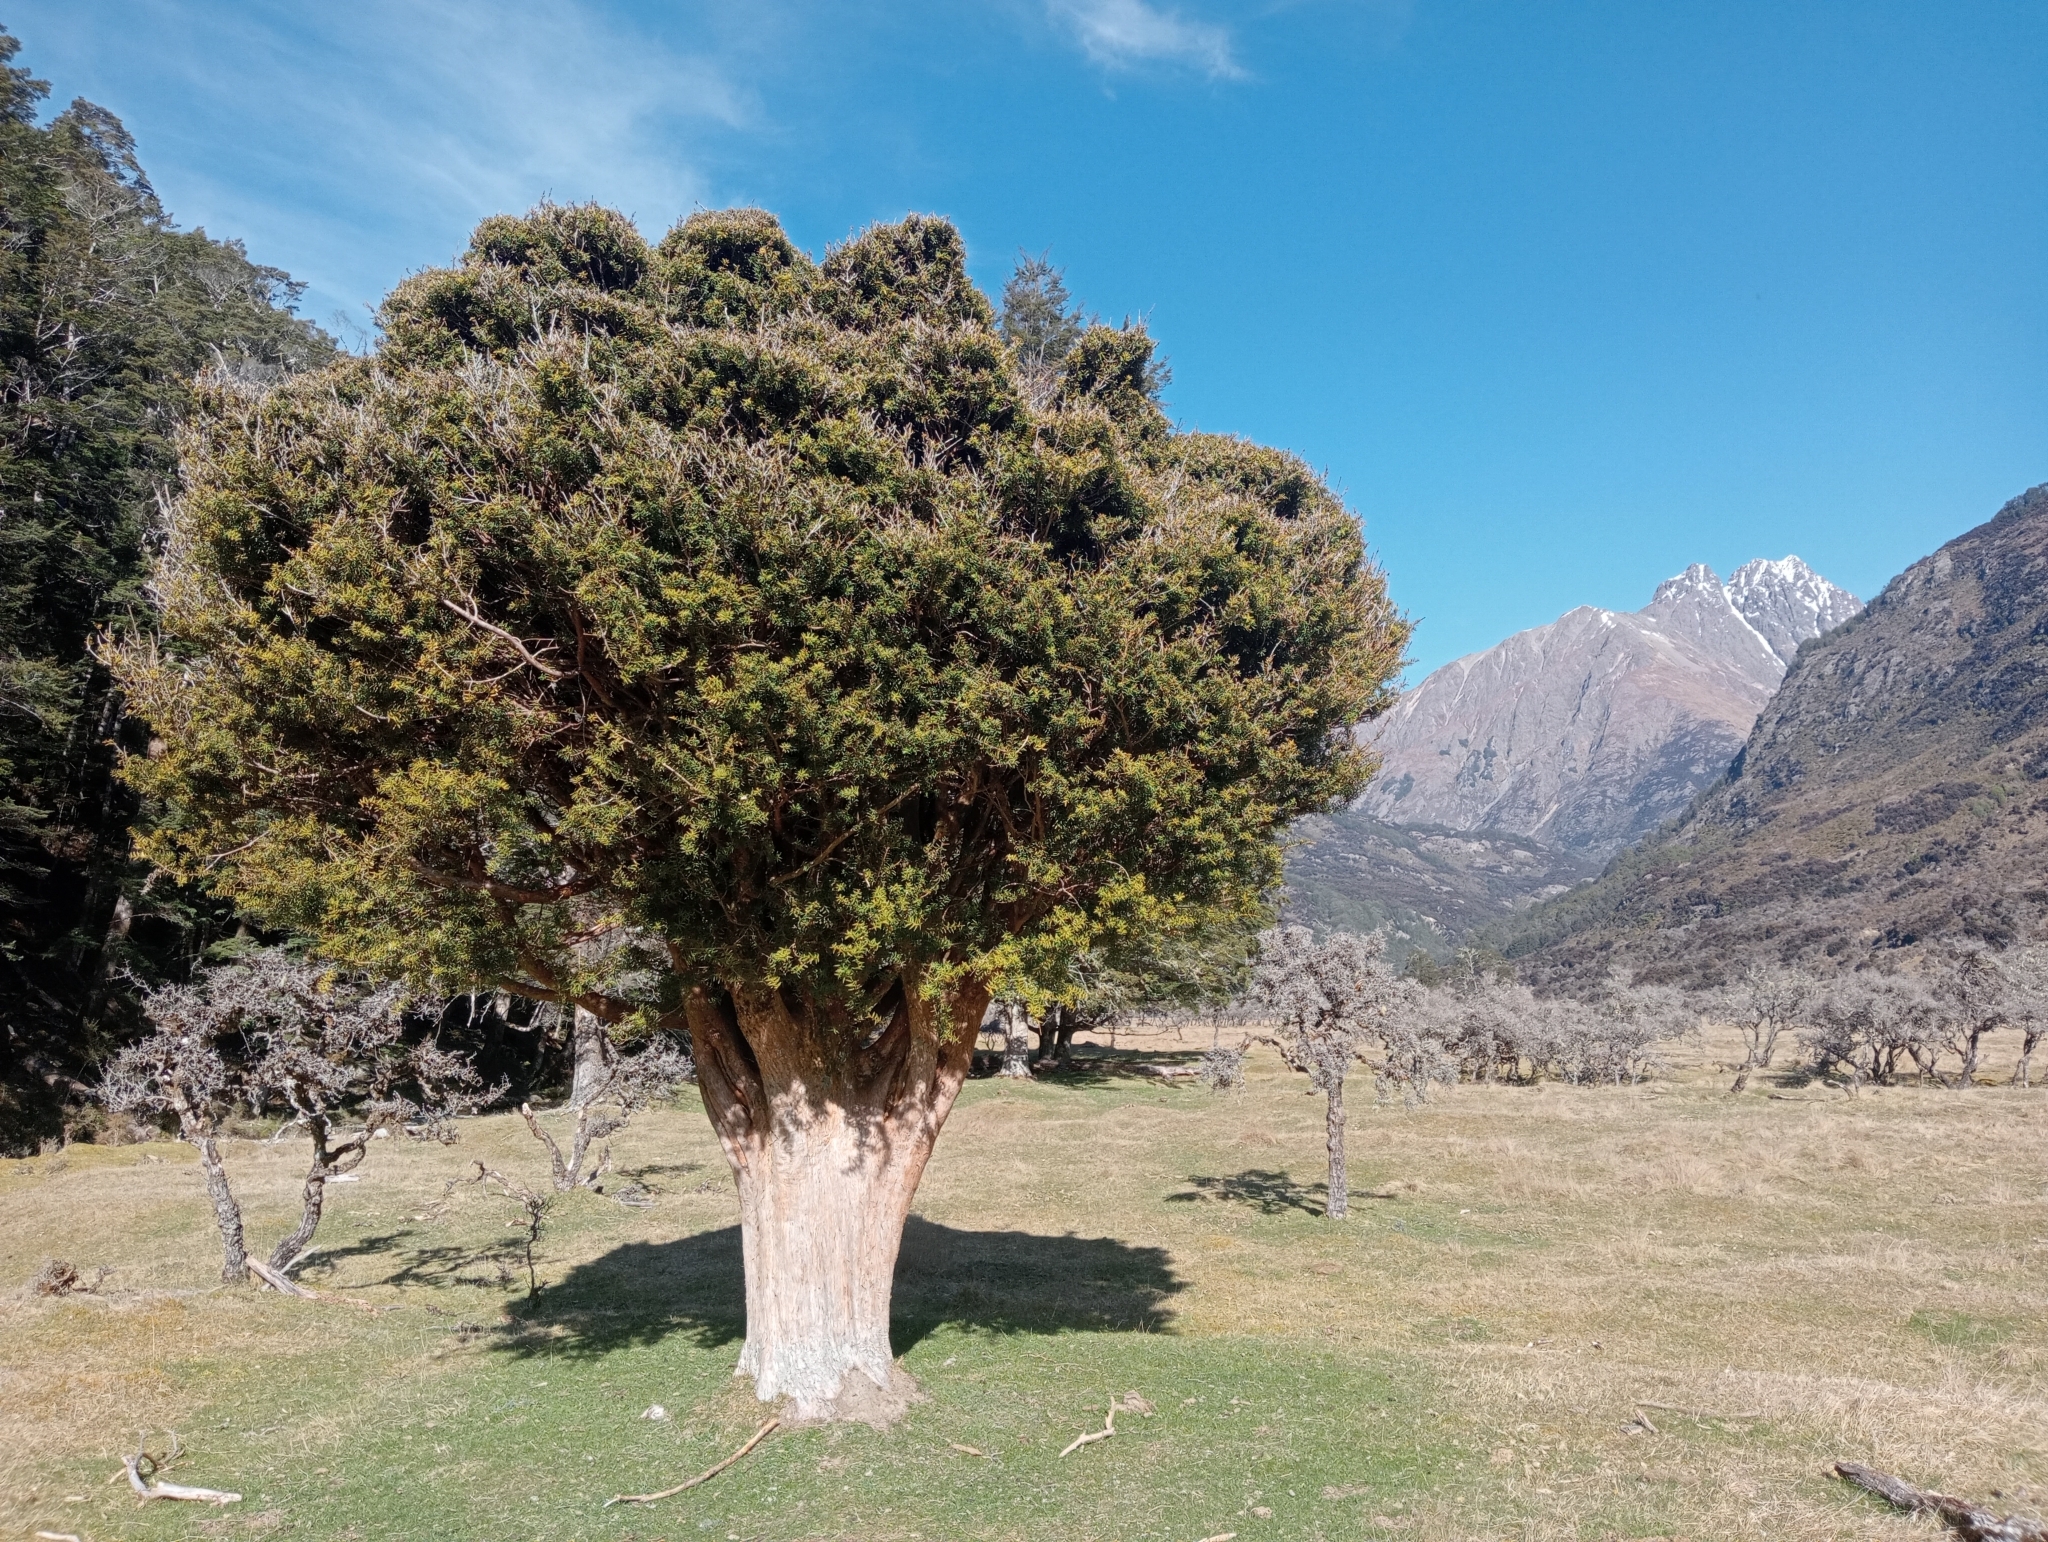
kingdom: Plantae
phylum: Tracheophyta
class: Pinopsida
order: Pinales
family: Podocarpaceae
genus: Podocarpus
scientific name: Podocarpus laetus
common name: Hall's totara
